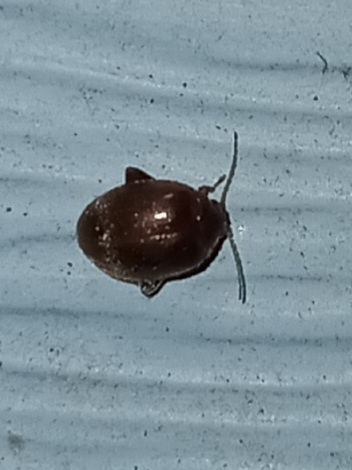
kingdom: Animalia
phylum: Arthropoda
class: Insecta
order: Coleoptera
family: Scirtidae
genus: Scirtes
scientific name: Scirtes tibialis
